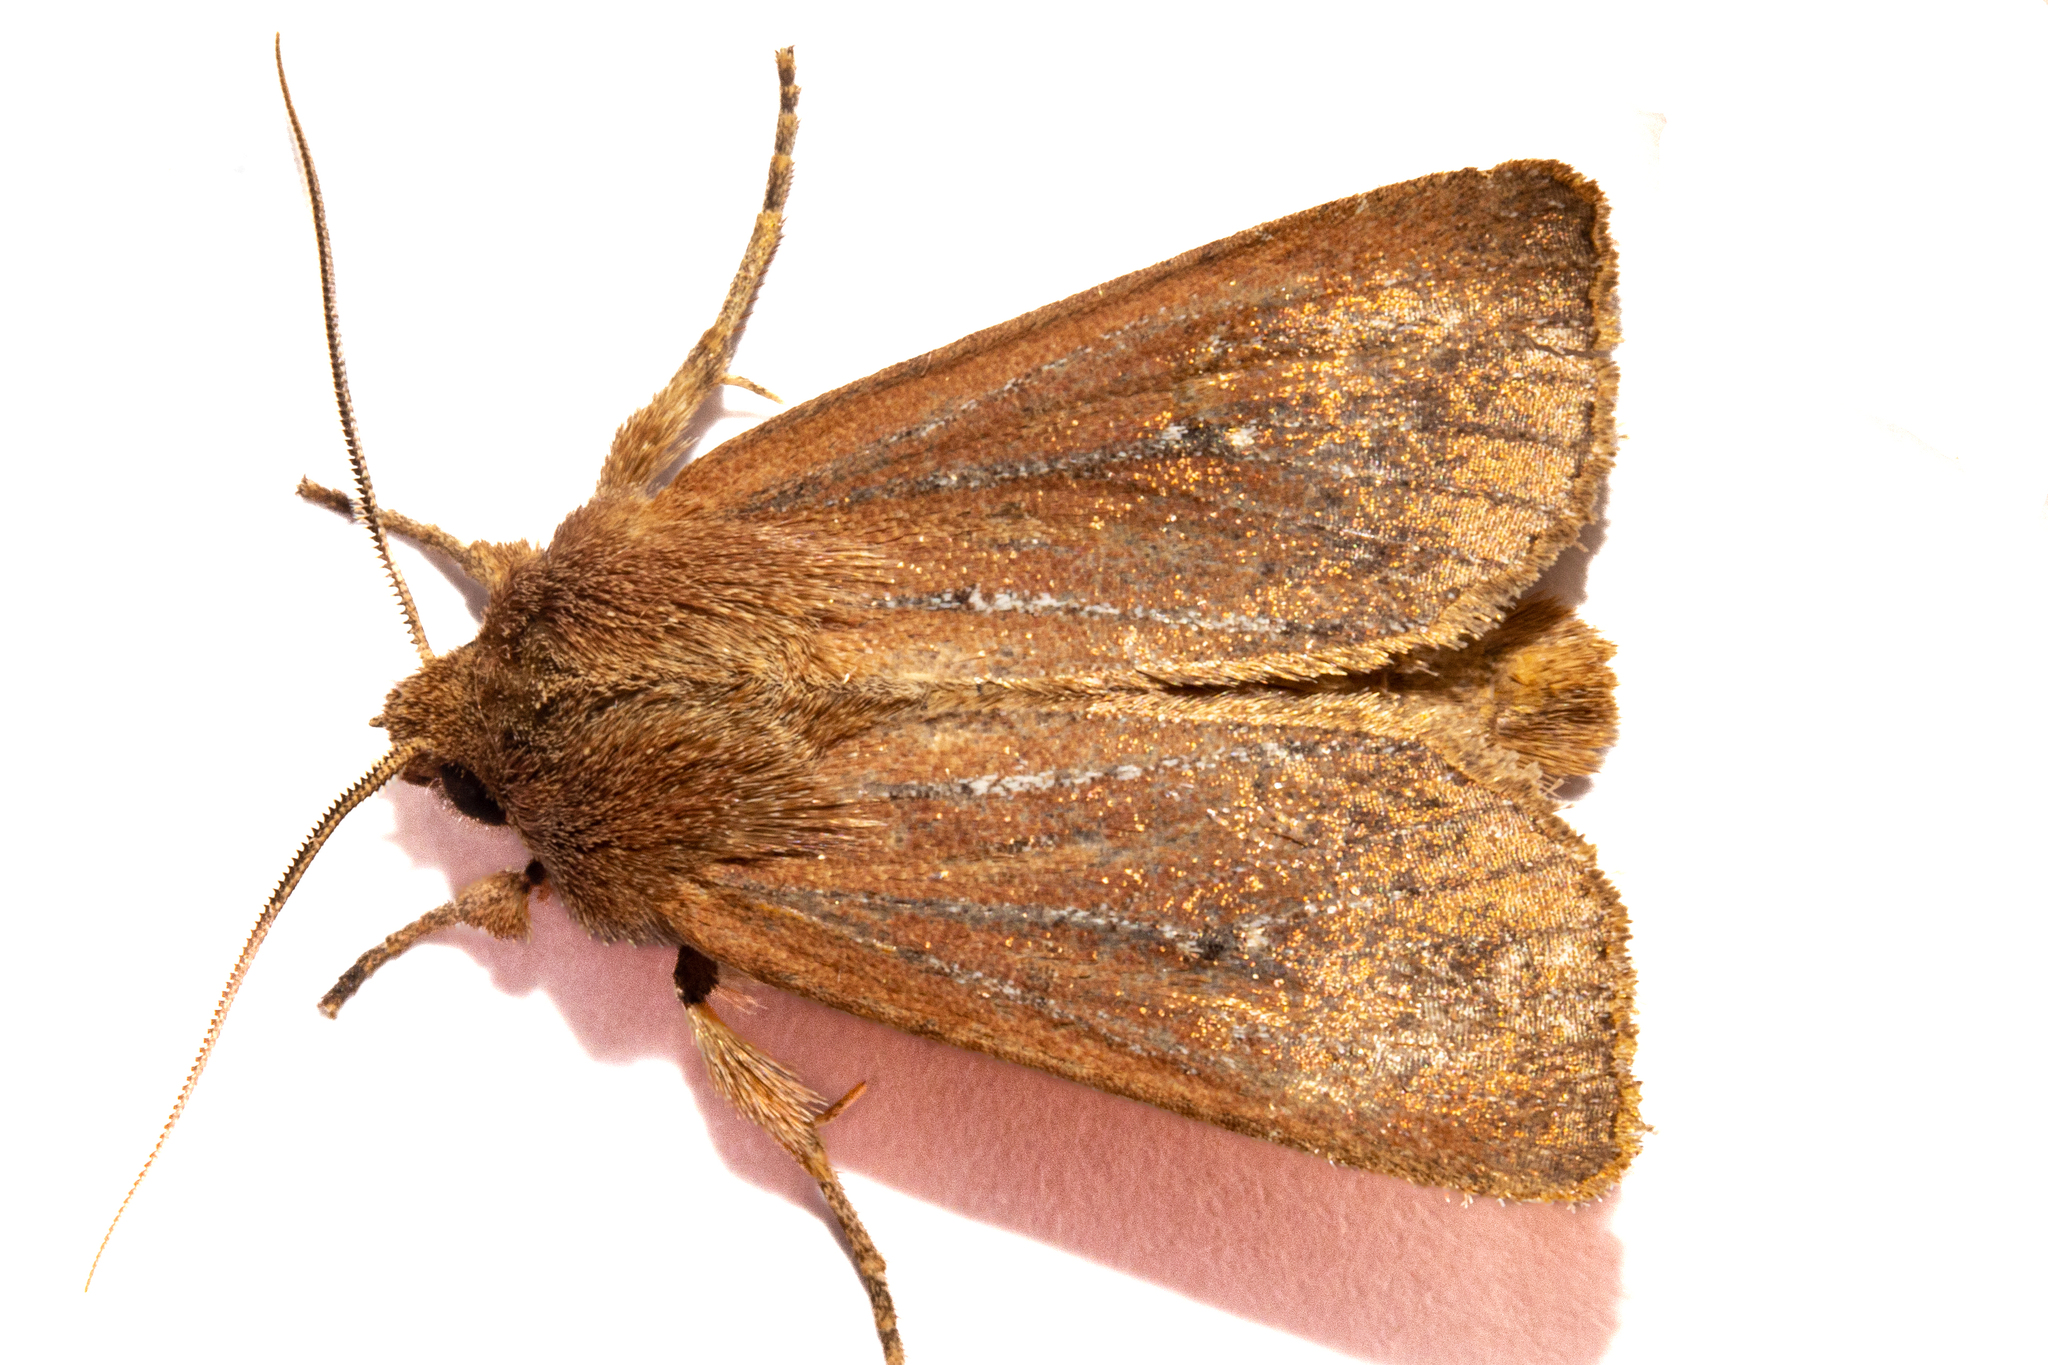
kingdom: Animalia
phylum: Arthropoda
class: Insecta
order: Lepidoptera
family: Noctuidae
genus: Ichneutica
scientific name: Ichneutica
